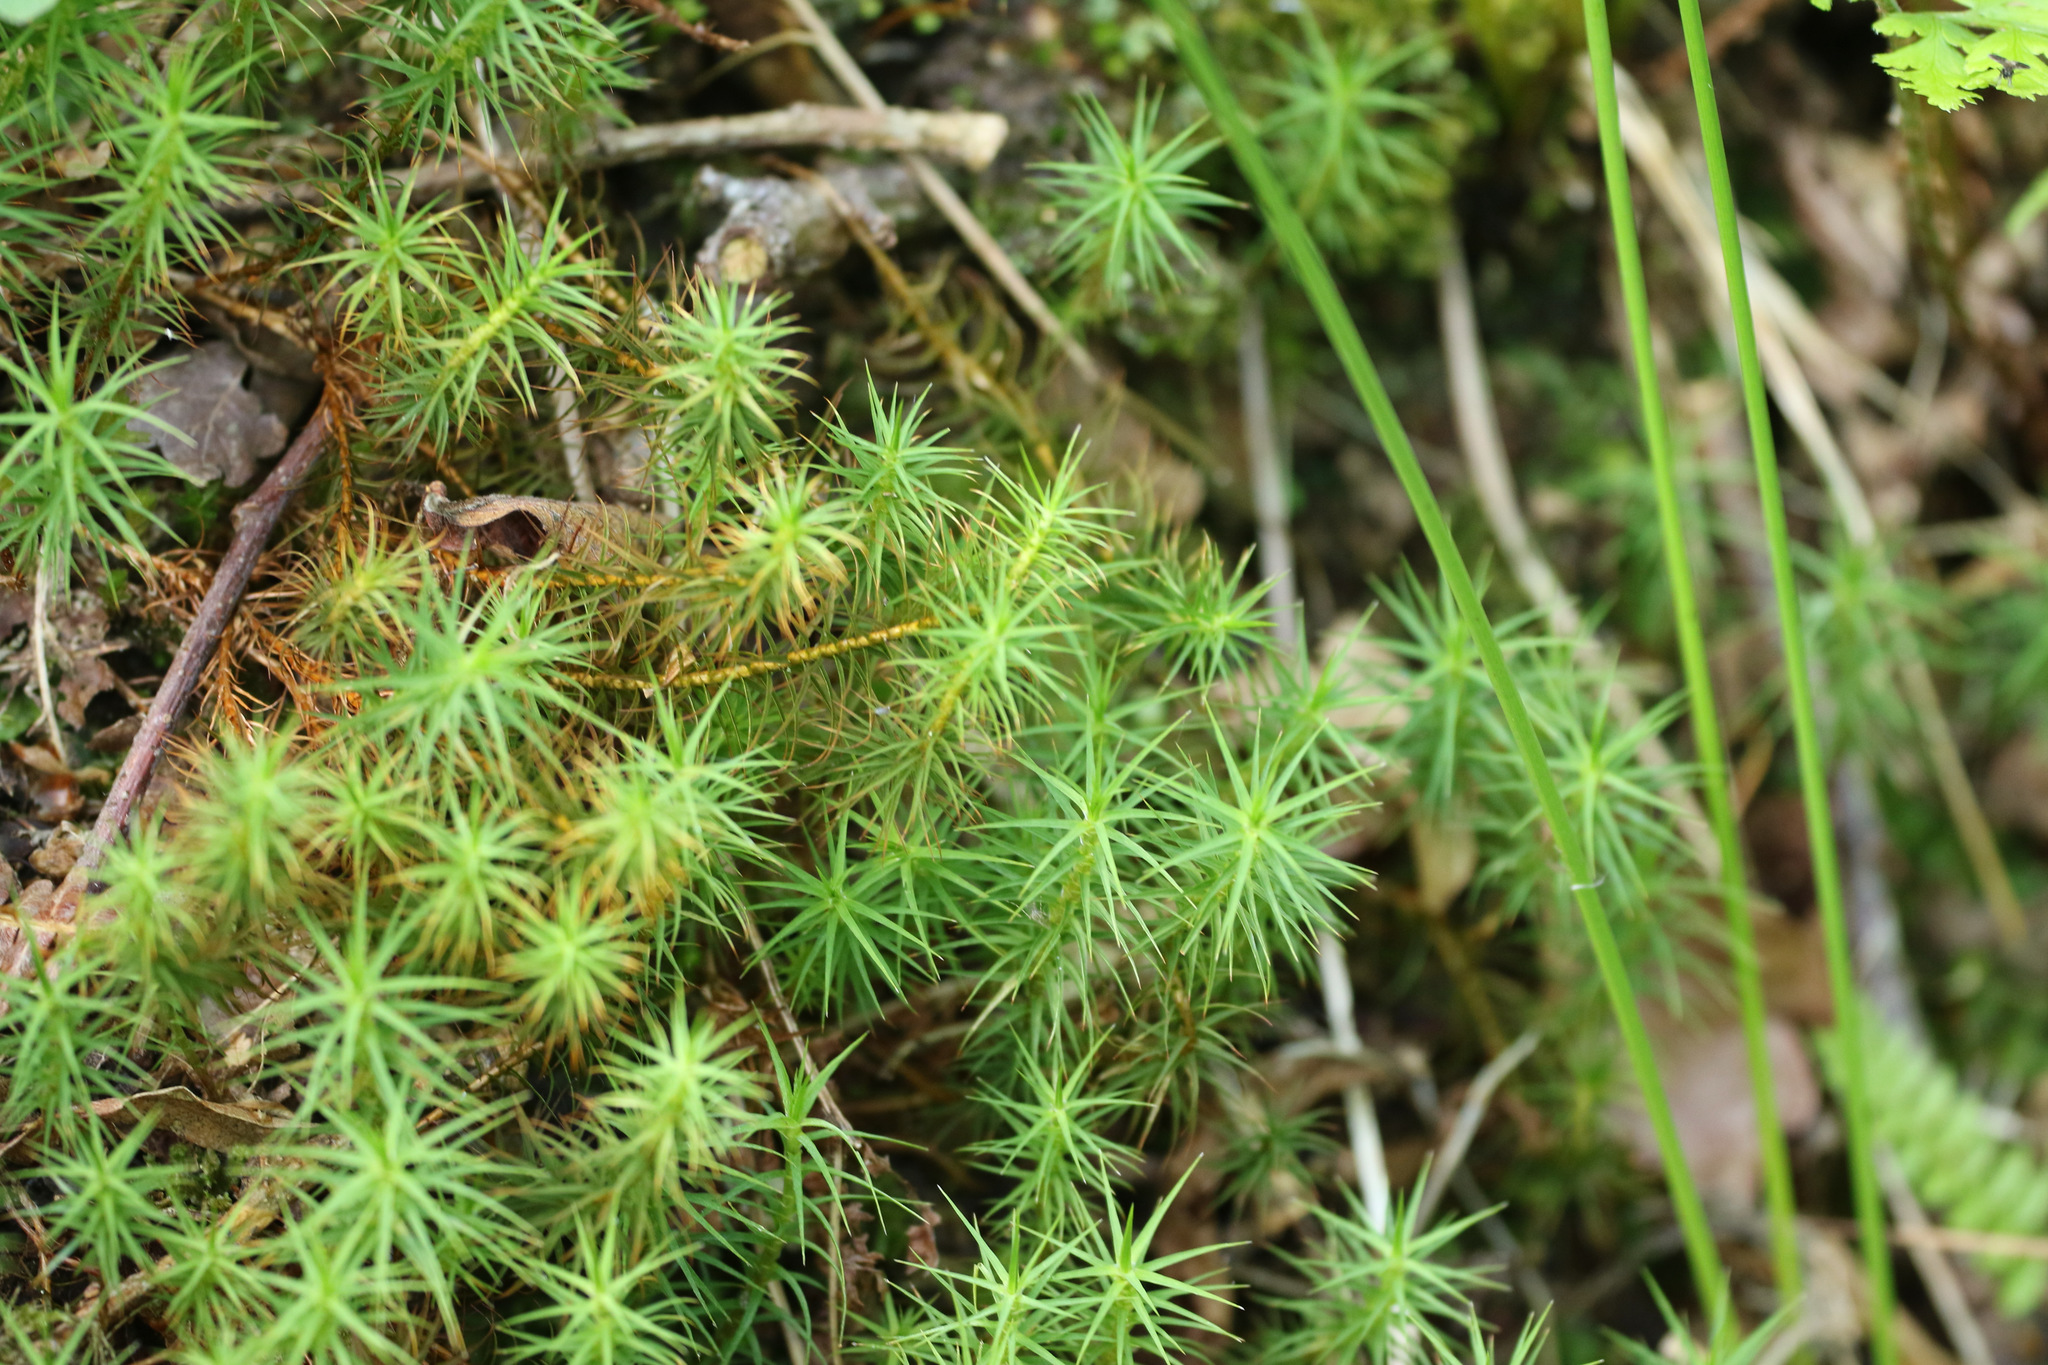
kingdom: Plantae
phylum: Bryophyta
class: Polytrichopsida
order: Polytrichales
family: Polytrichaceae
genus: Polytrichum
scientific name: Polytrichum commune
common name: Common haircap
